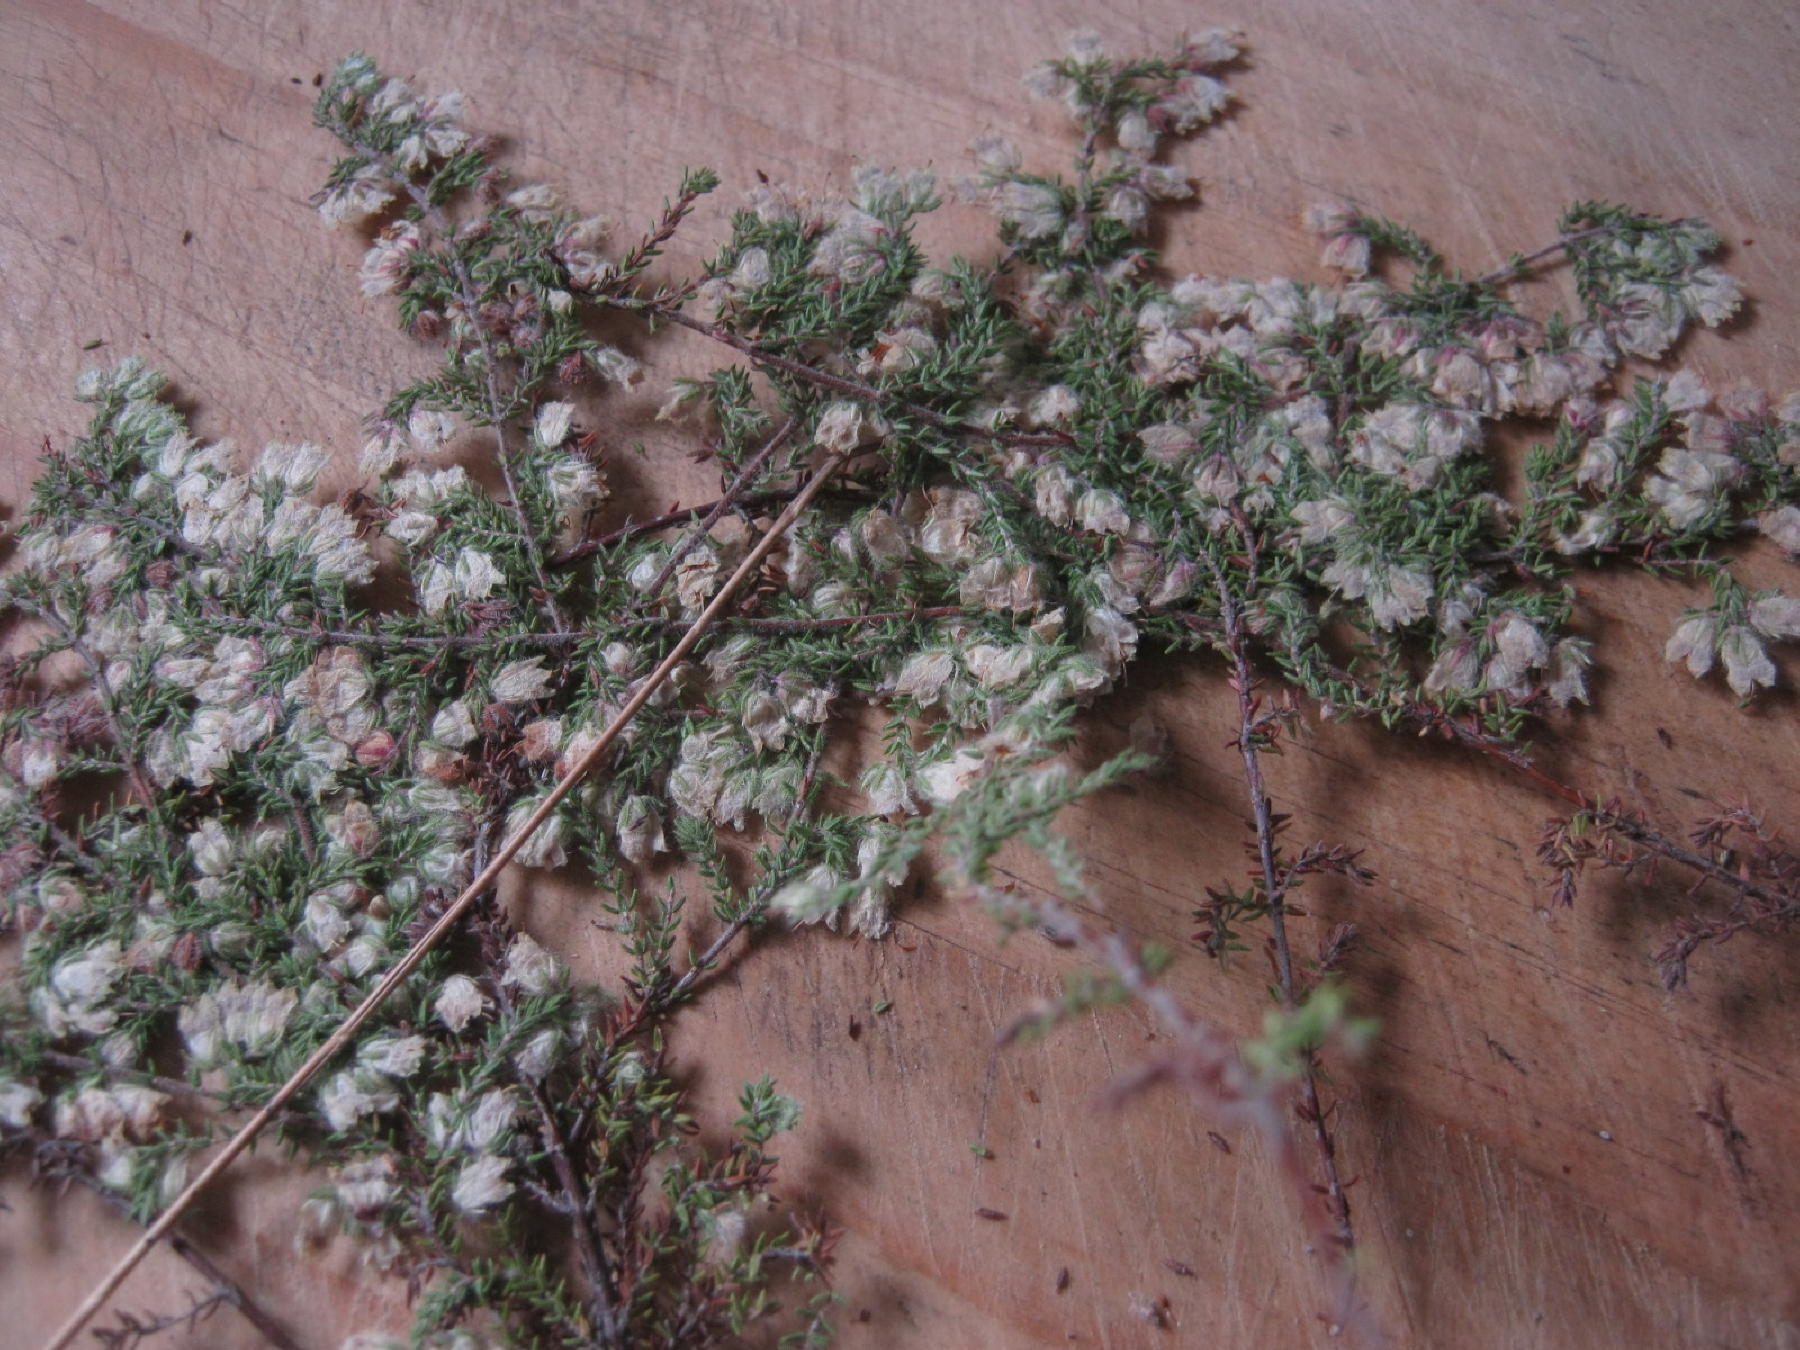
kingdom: Plantae
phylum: Tracheophyta
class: Magnoliopsida
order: Ericales
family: Ericaceae
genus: Erica
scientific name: Erica dysantha
